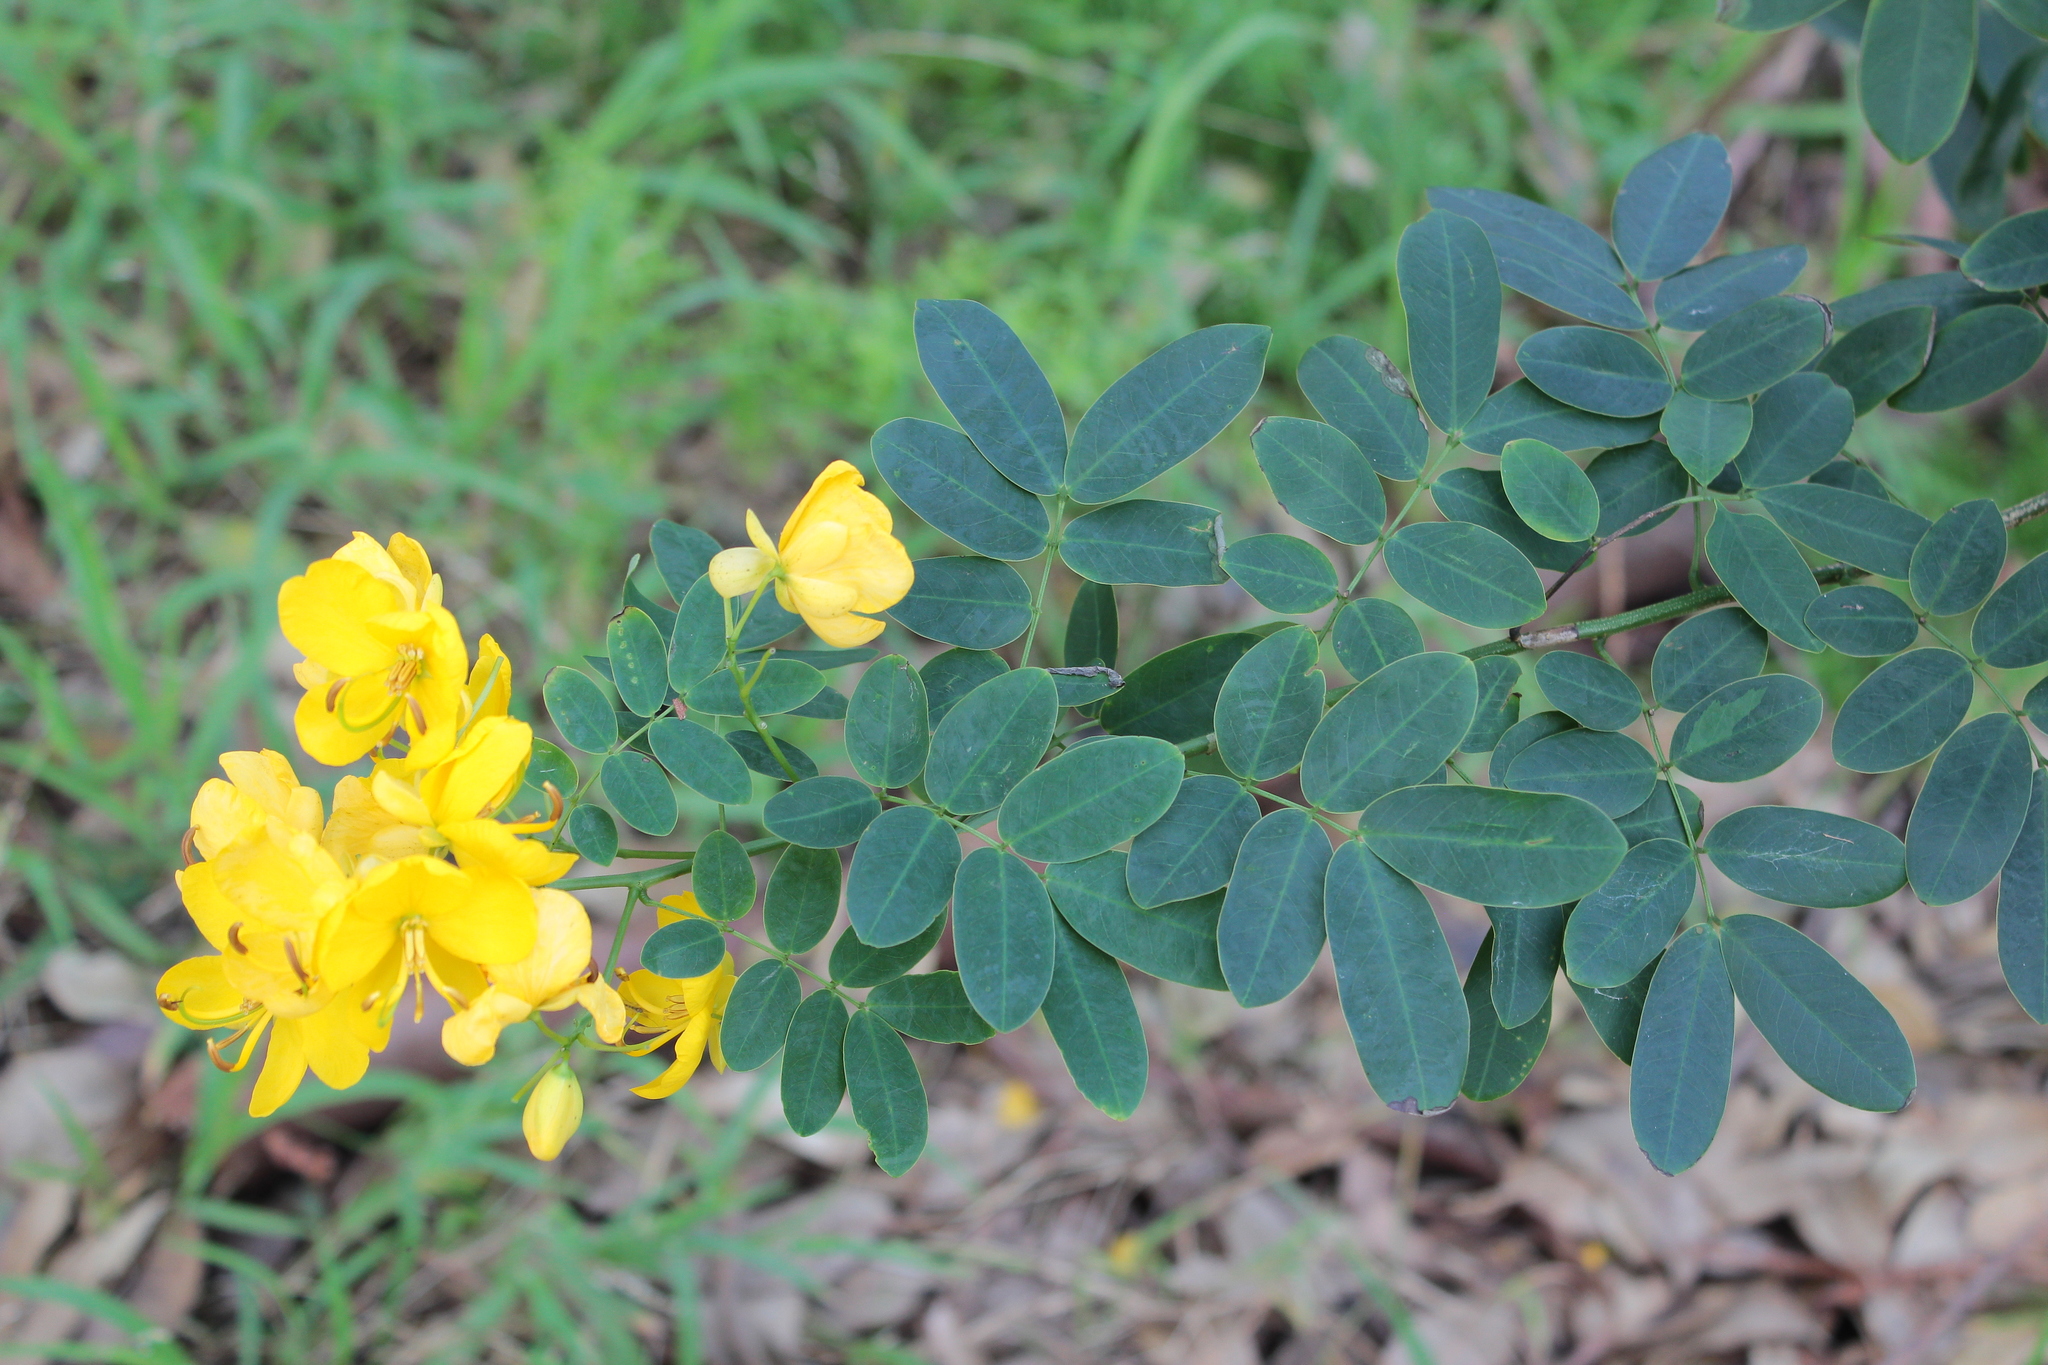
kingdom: Plantae
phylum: Tracheophyta
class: Magnoliopsida
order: Fabales
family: Fabaceae
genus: Senna
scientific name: Senna pendula
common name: Easter cassia
